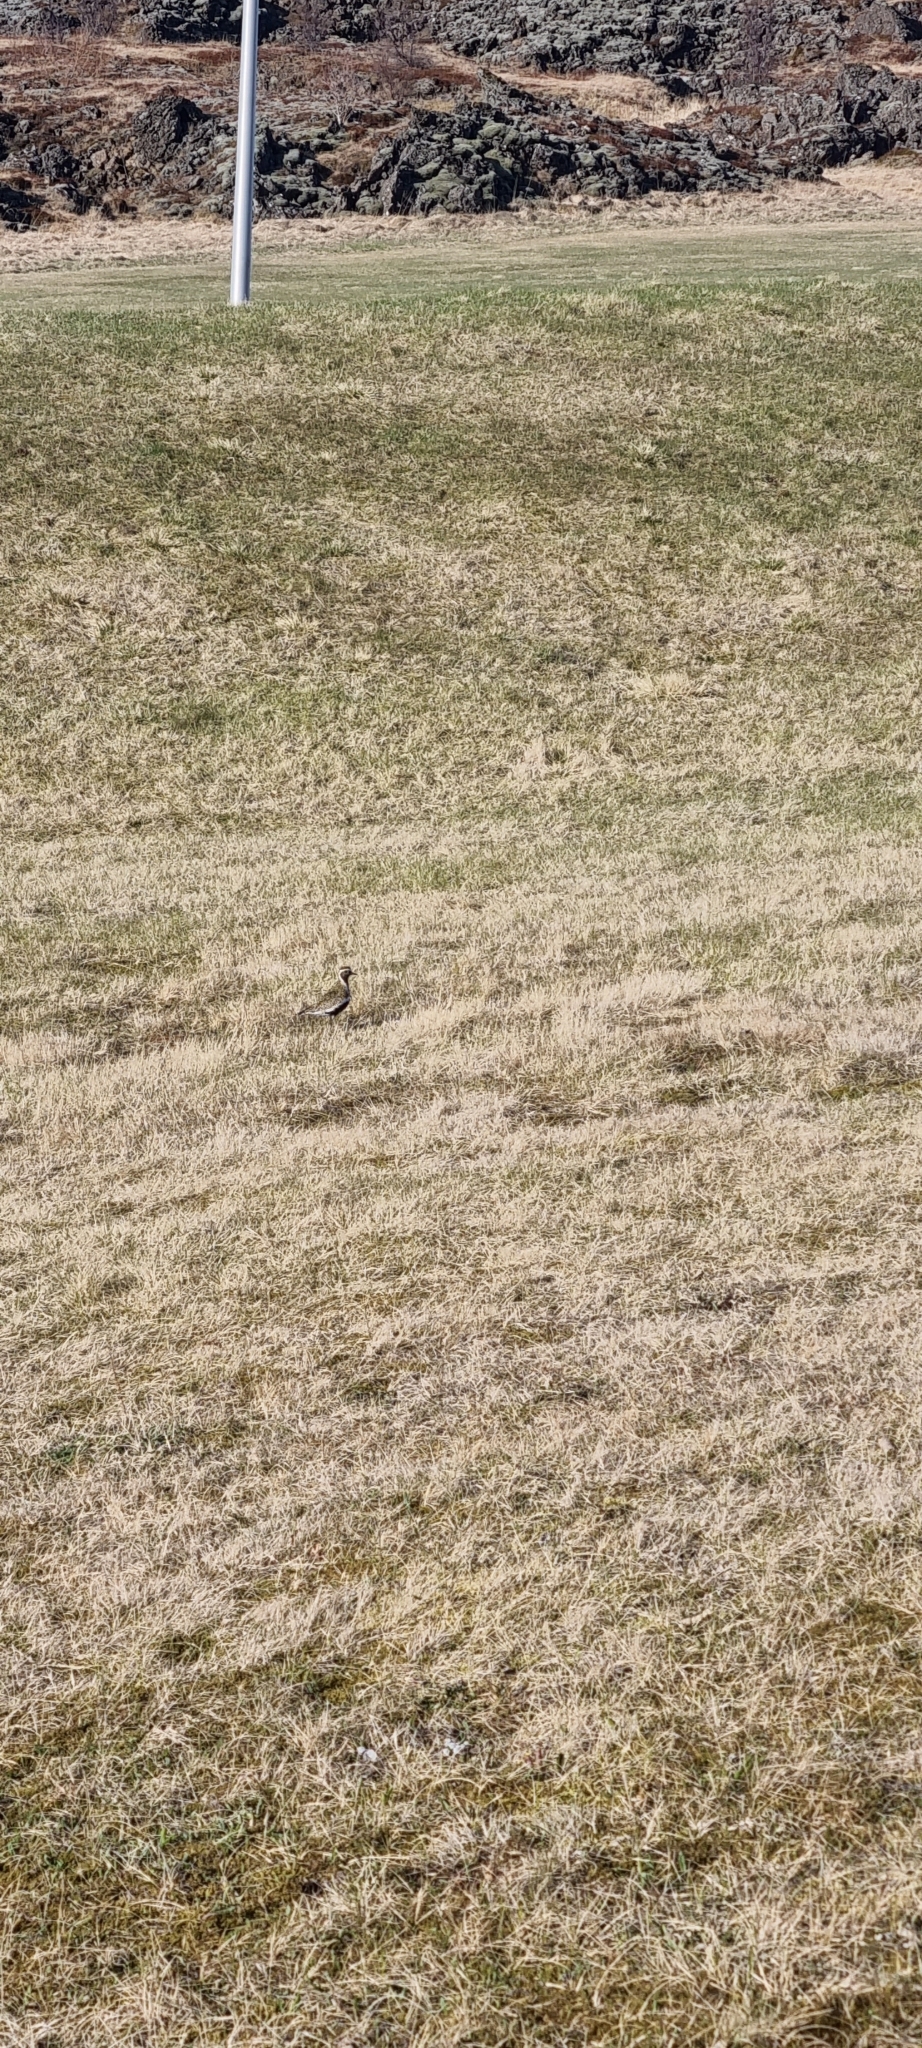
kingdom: Animalia
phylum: Chordata
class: Aves
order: Charadriiformes
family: Charadriidae
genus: Pluvialis
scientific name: Pluvialis apricaria
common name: European golden plover
